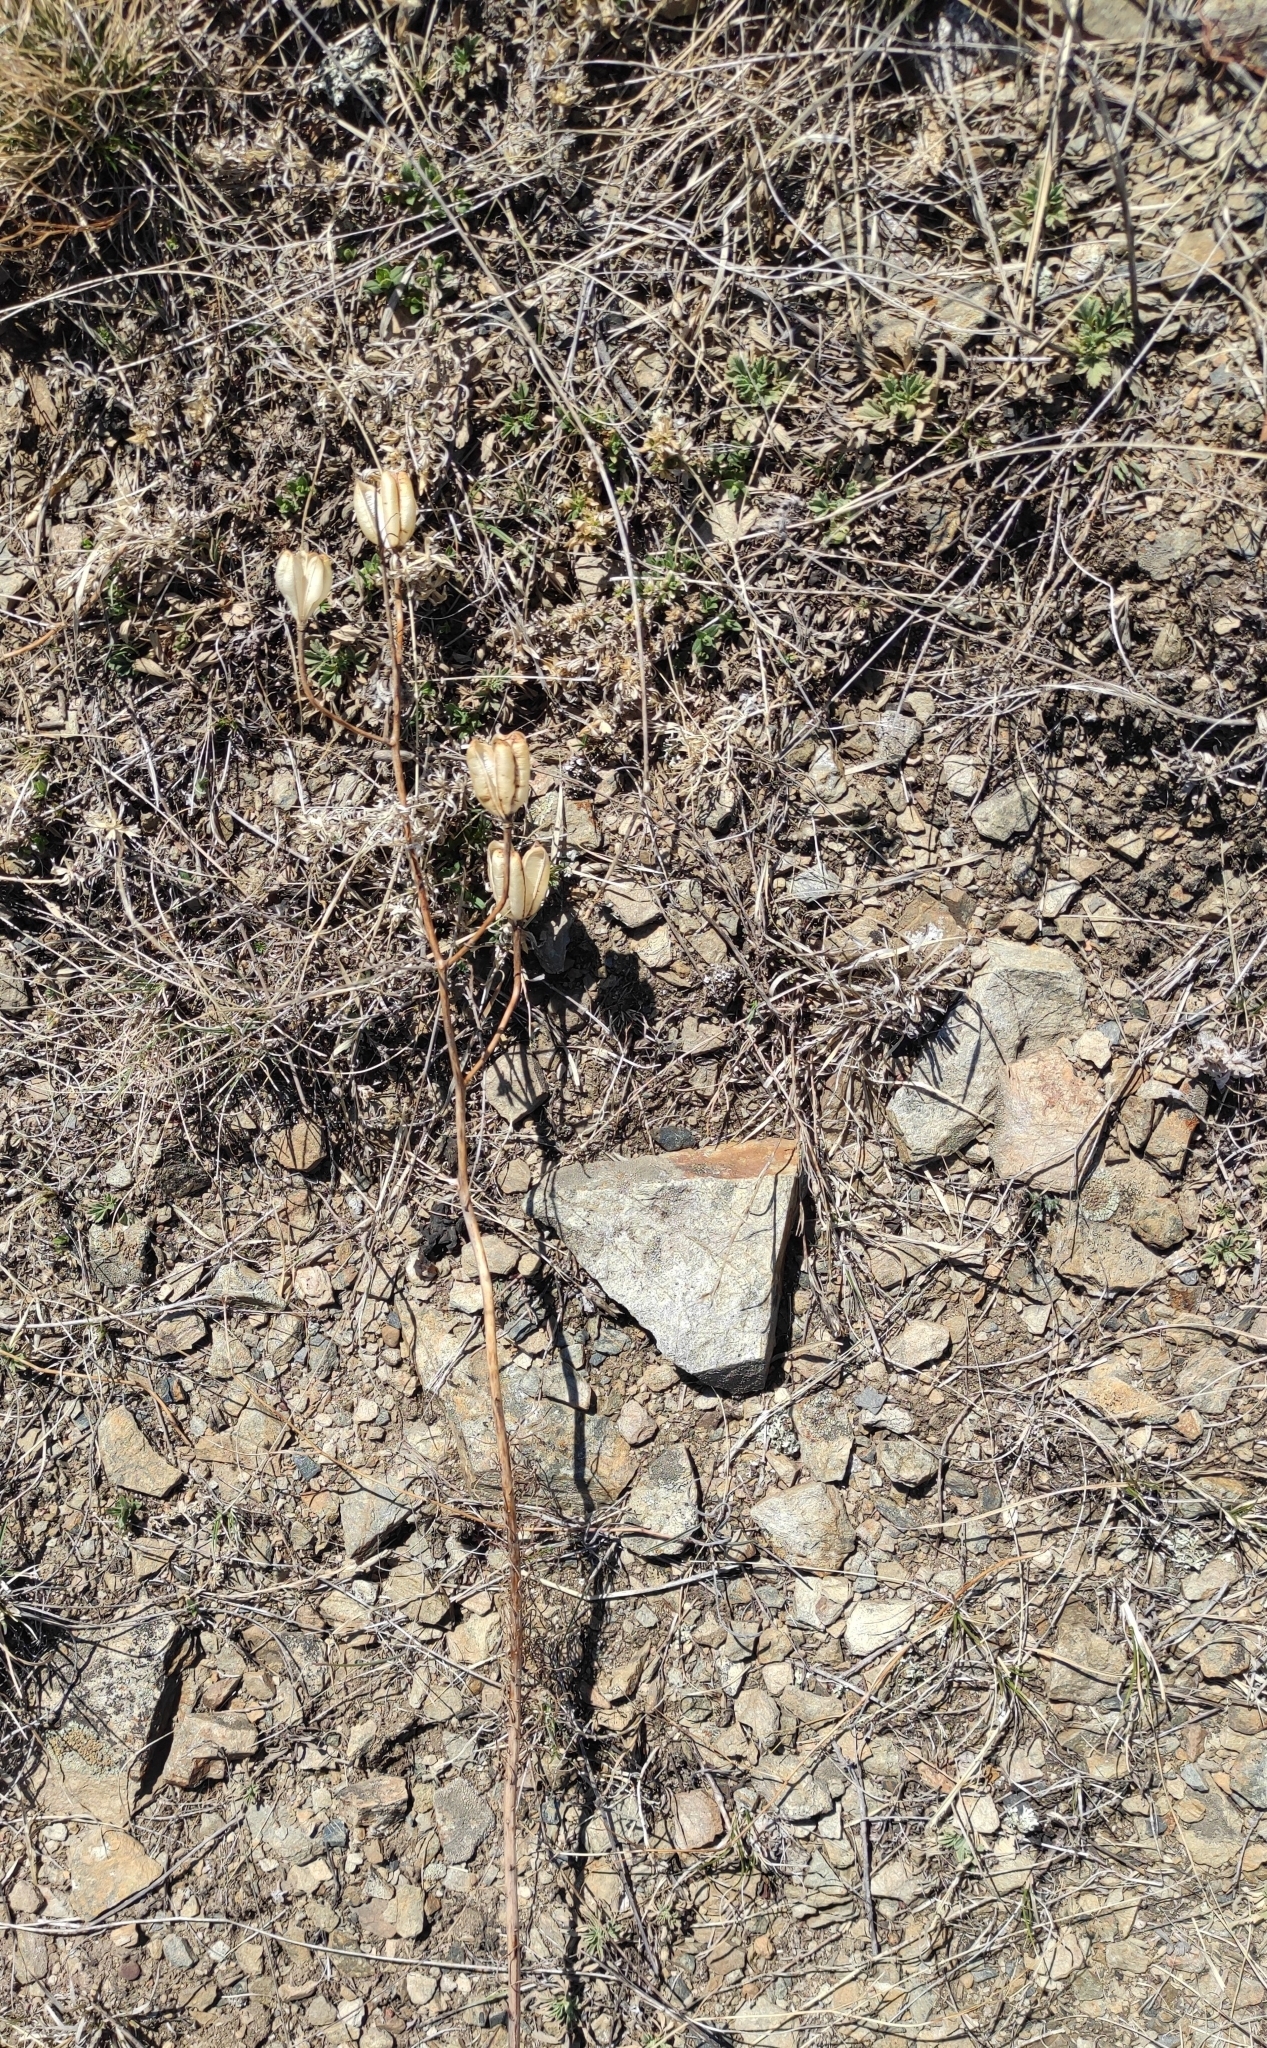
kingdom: Plantae
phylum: Tracheophyta
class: Liliopsida
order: Liliales
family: Liliaceae
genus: Lilium
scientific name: Lilium pumilum
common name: Coral lily
